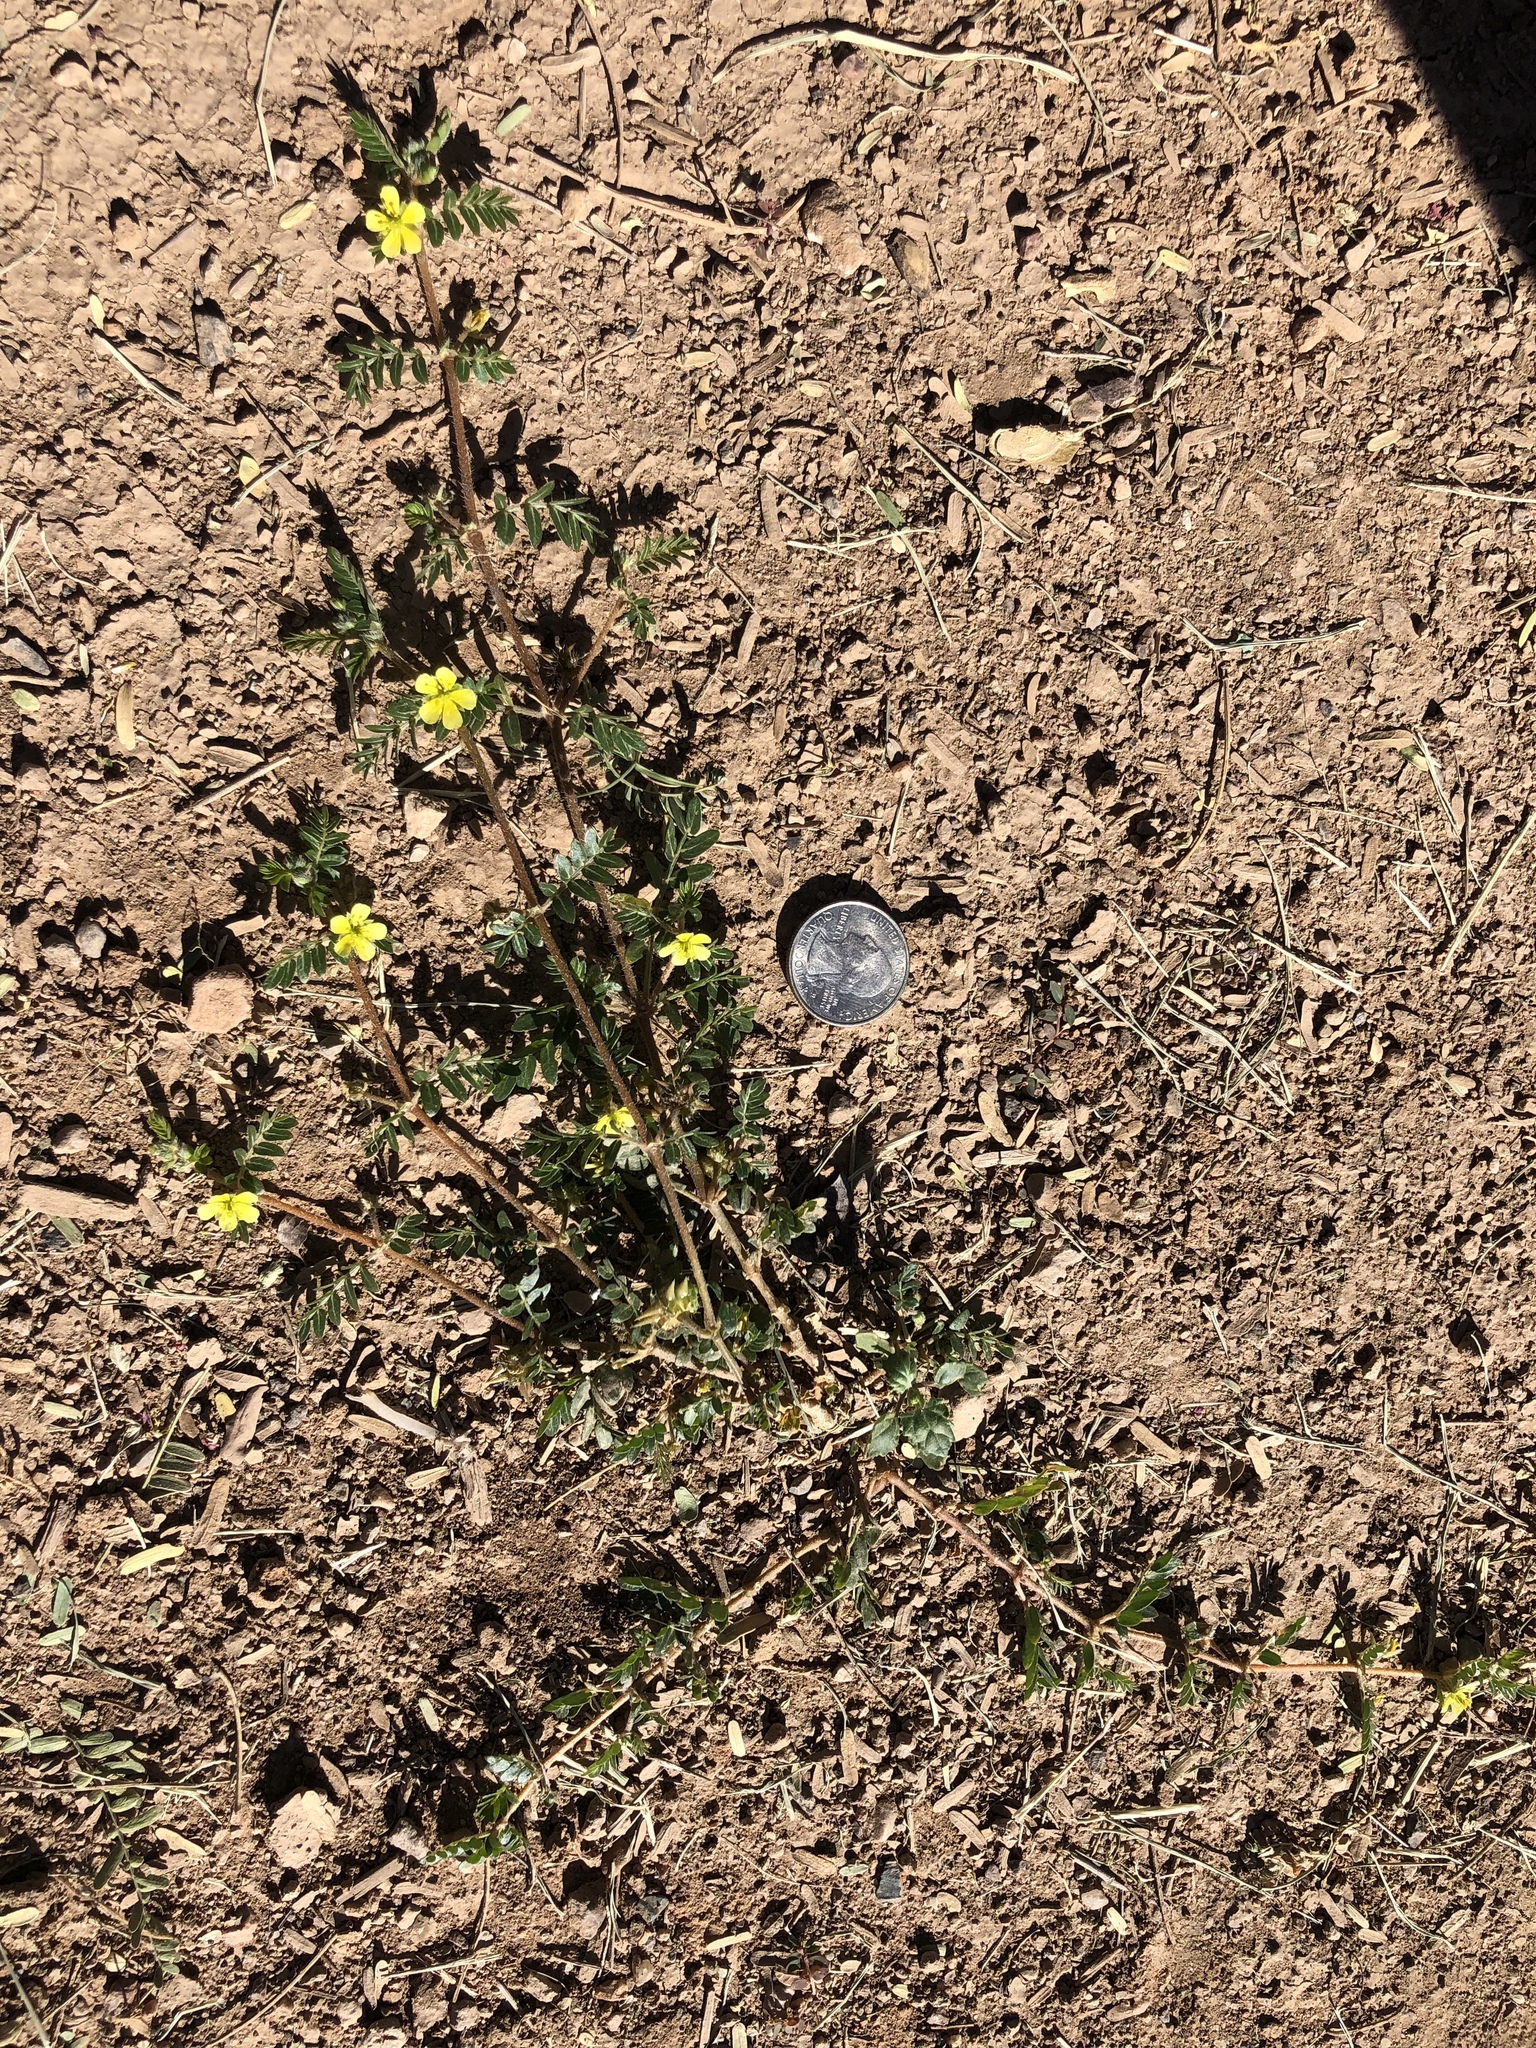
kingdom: Plantae
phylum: Tracheophyta
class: Magnoliopsida
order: Zygophyllales
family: Zygophyllaceae
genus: Tribulus
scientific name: Tribulus terrestris
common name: Puncturevine
